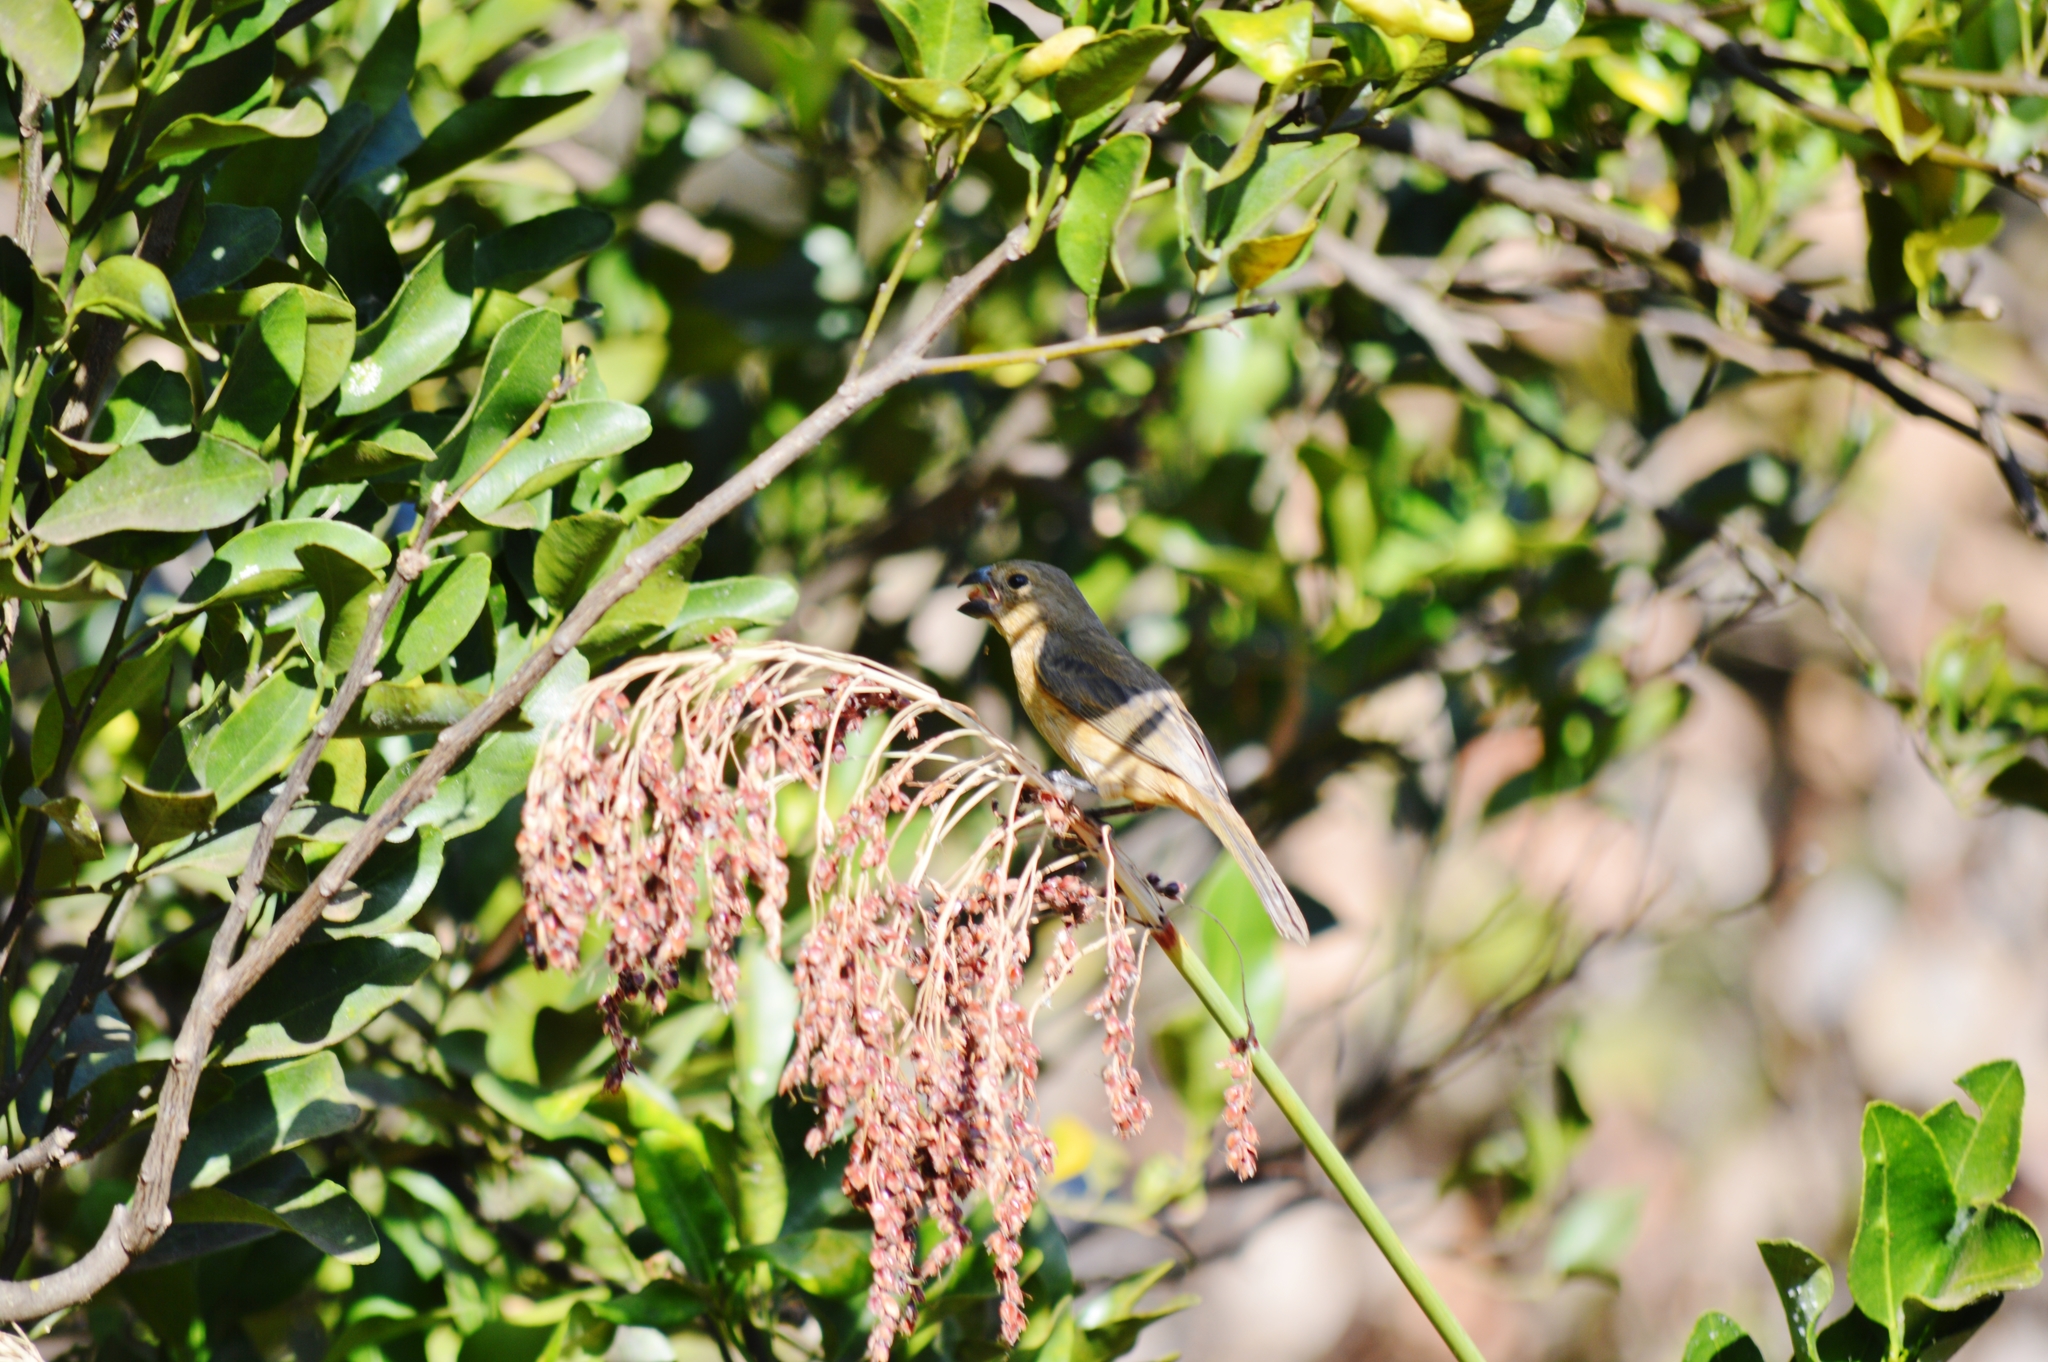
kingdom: Animalia
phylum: Chordata
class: Aves
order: Passeriformes
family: Thraupidae
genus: Sporophila
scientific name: Sporophila nigricollis
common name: Yellow-bellied seedeater
